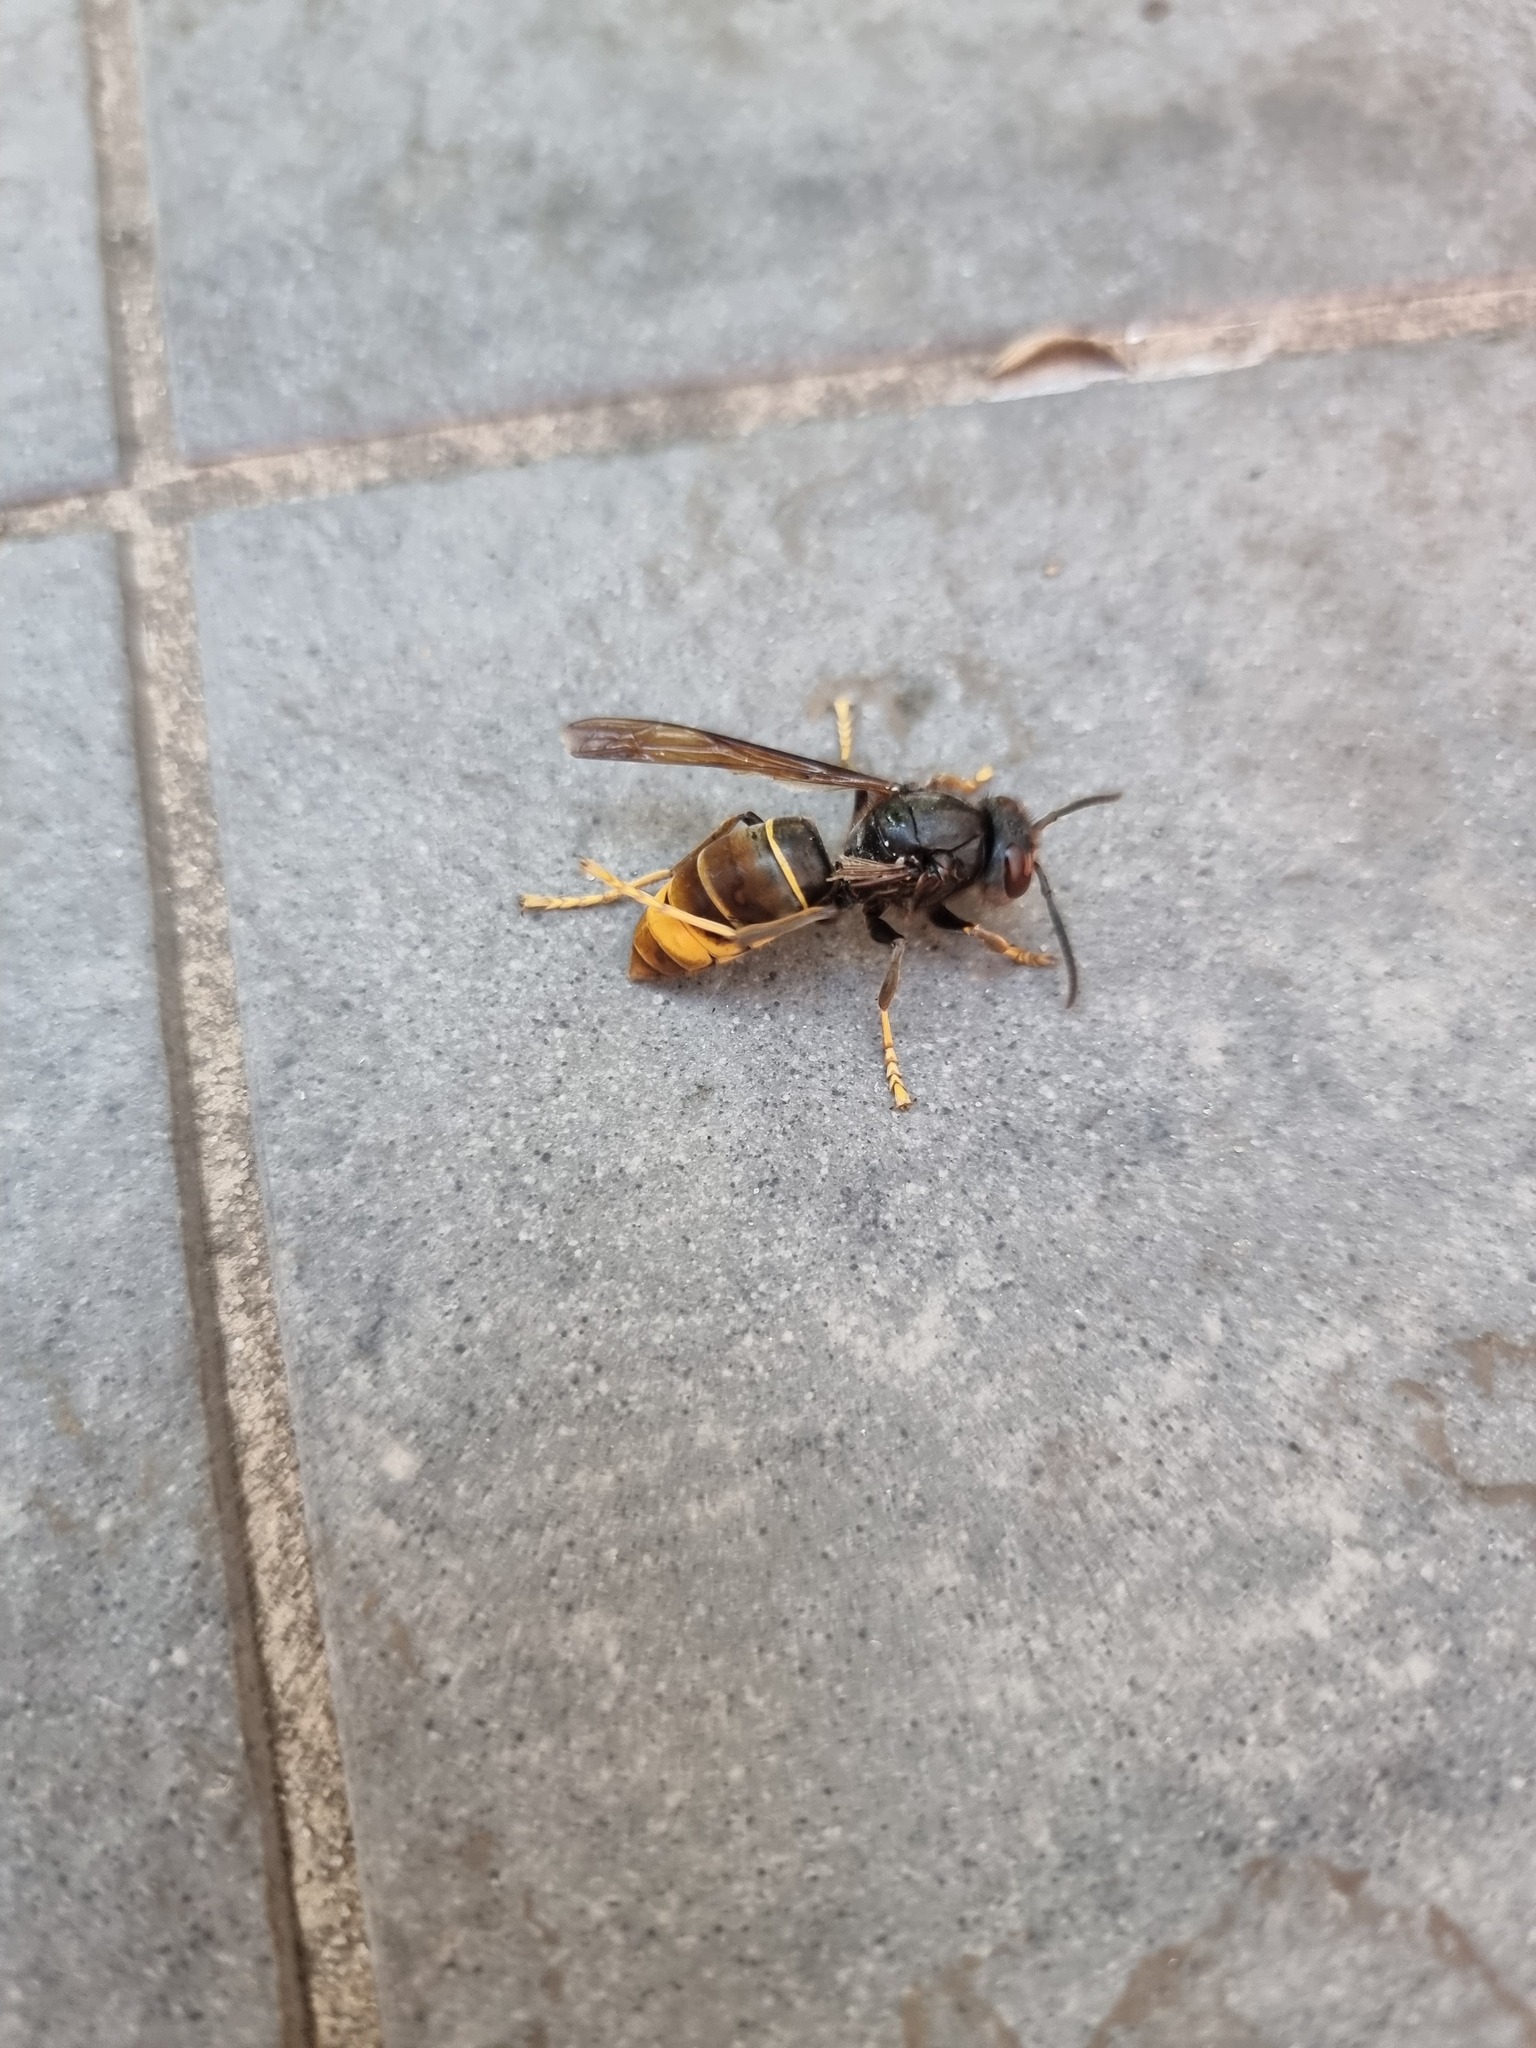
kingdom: Animalia
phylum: Arthropoda
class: Insecta
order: Hymenoptera
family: Vespidae
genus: Vespa
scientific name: Vespa velutina
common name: Asian hornet
